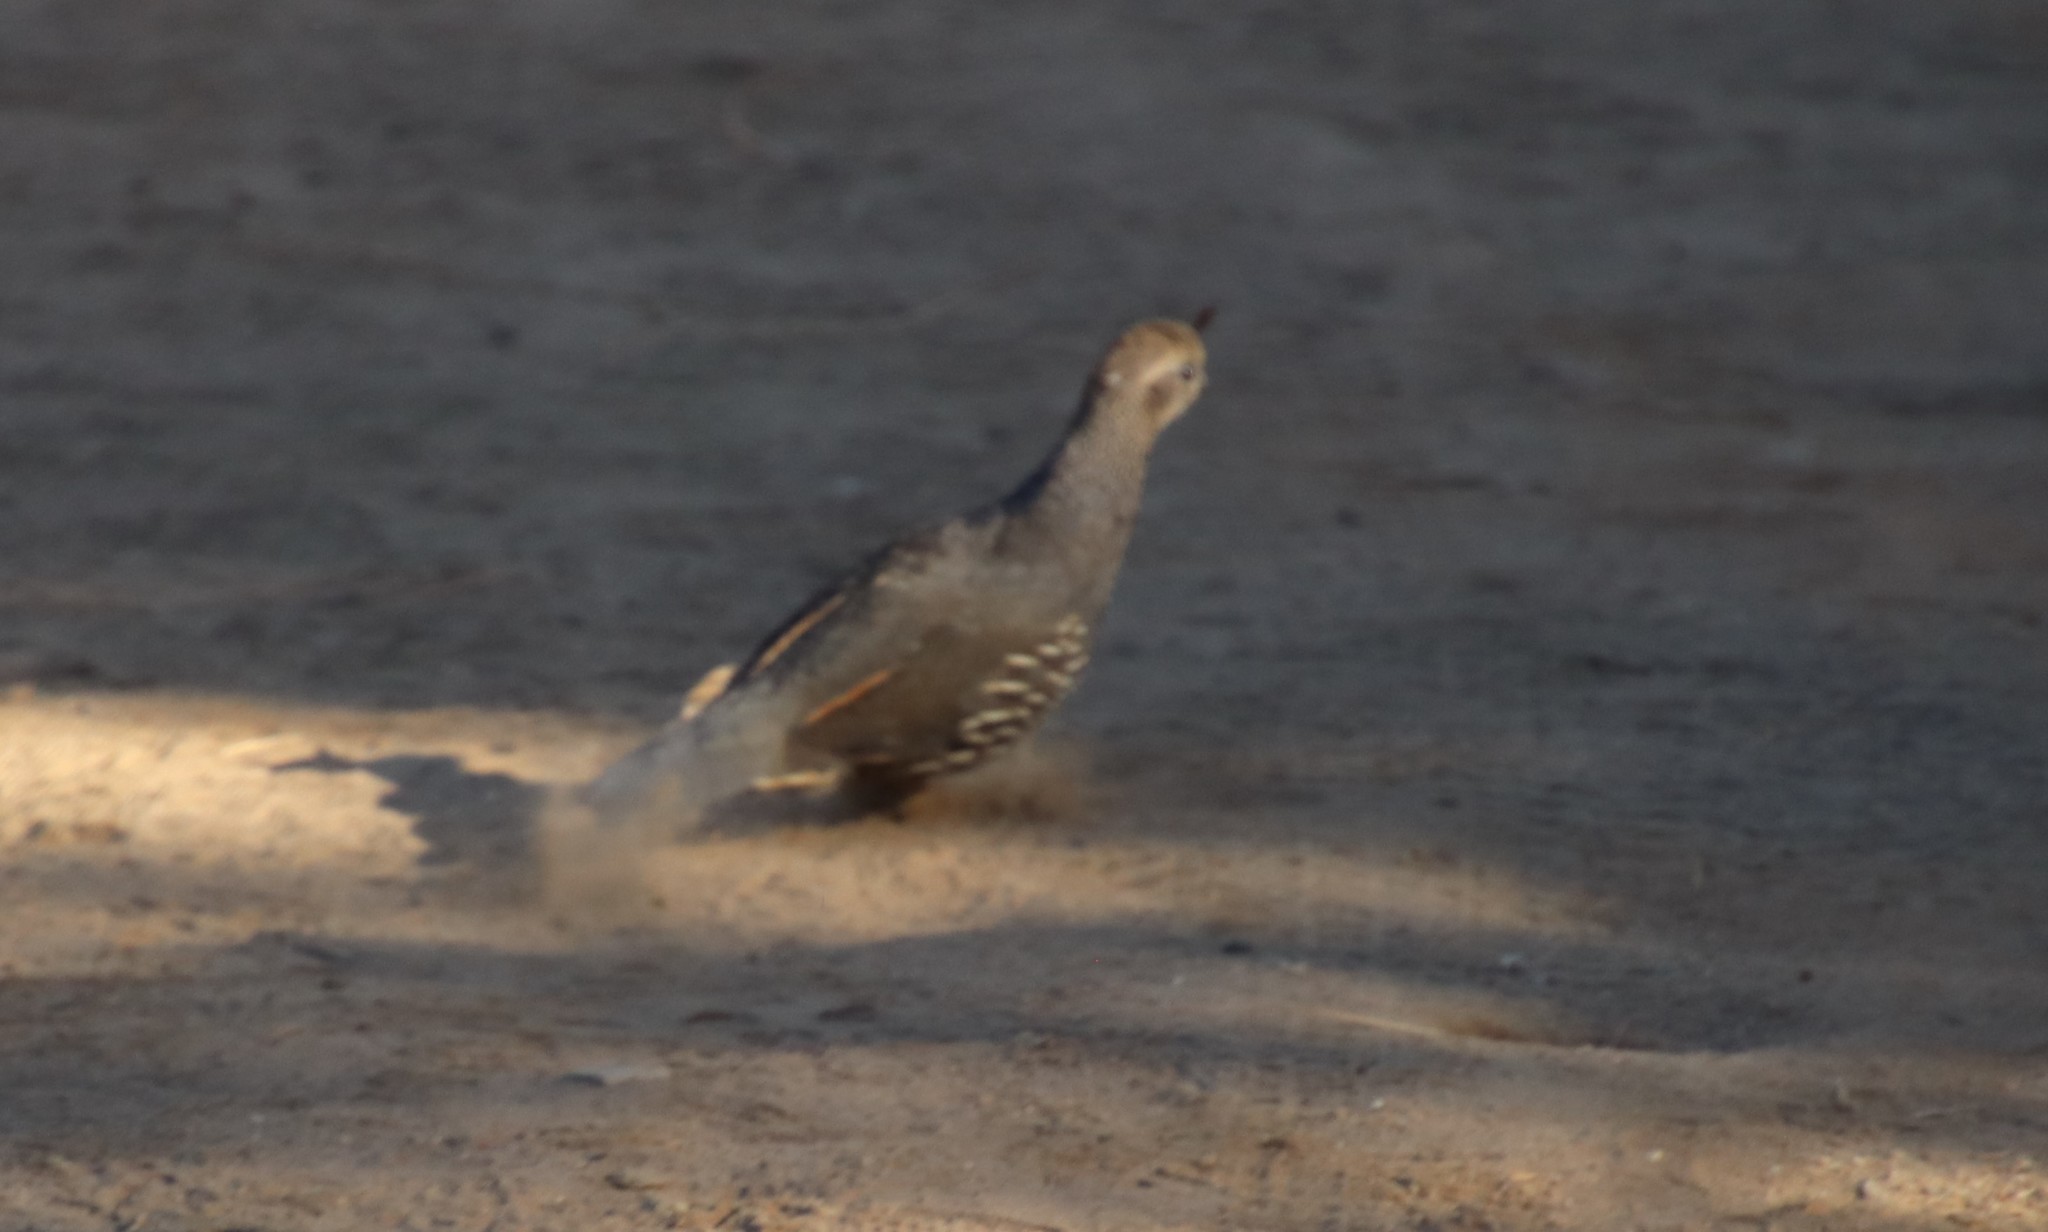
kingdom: Animalia
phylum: Chordata
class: Aves
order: Galliformes
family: Odontophoridae
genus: Callipepla
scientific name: Callipepla californica
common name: California quail
